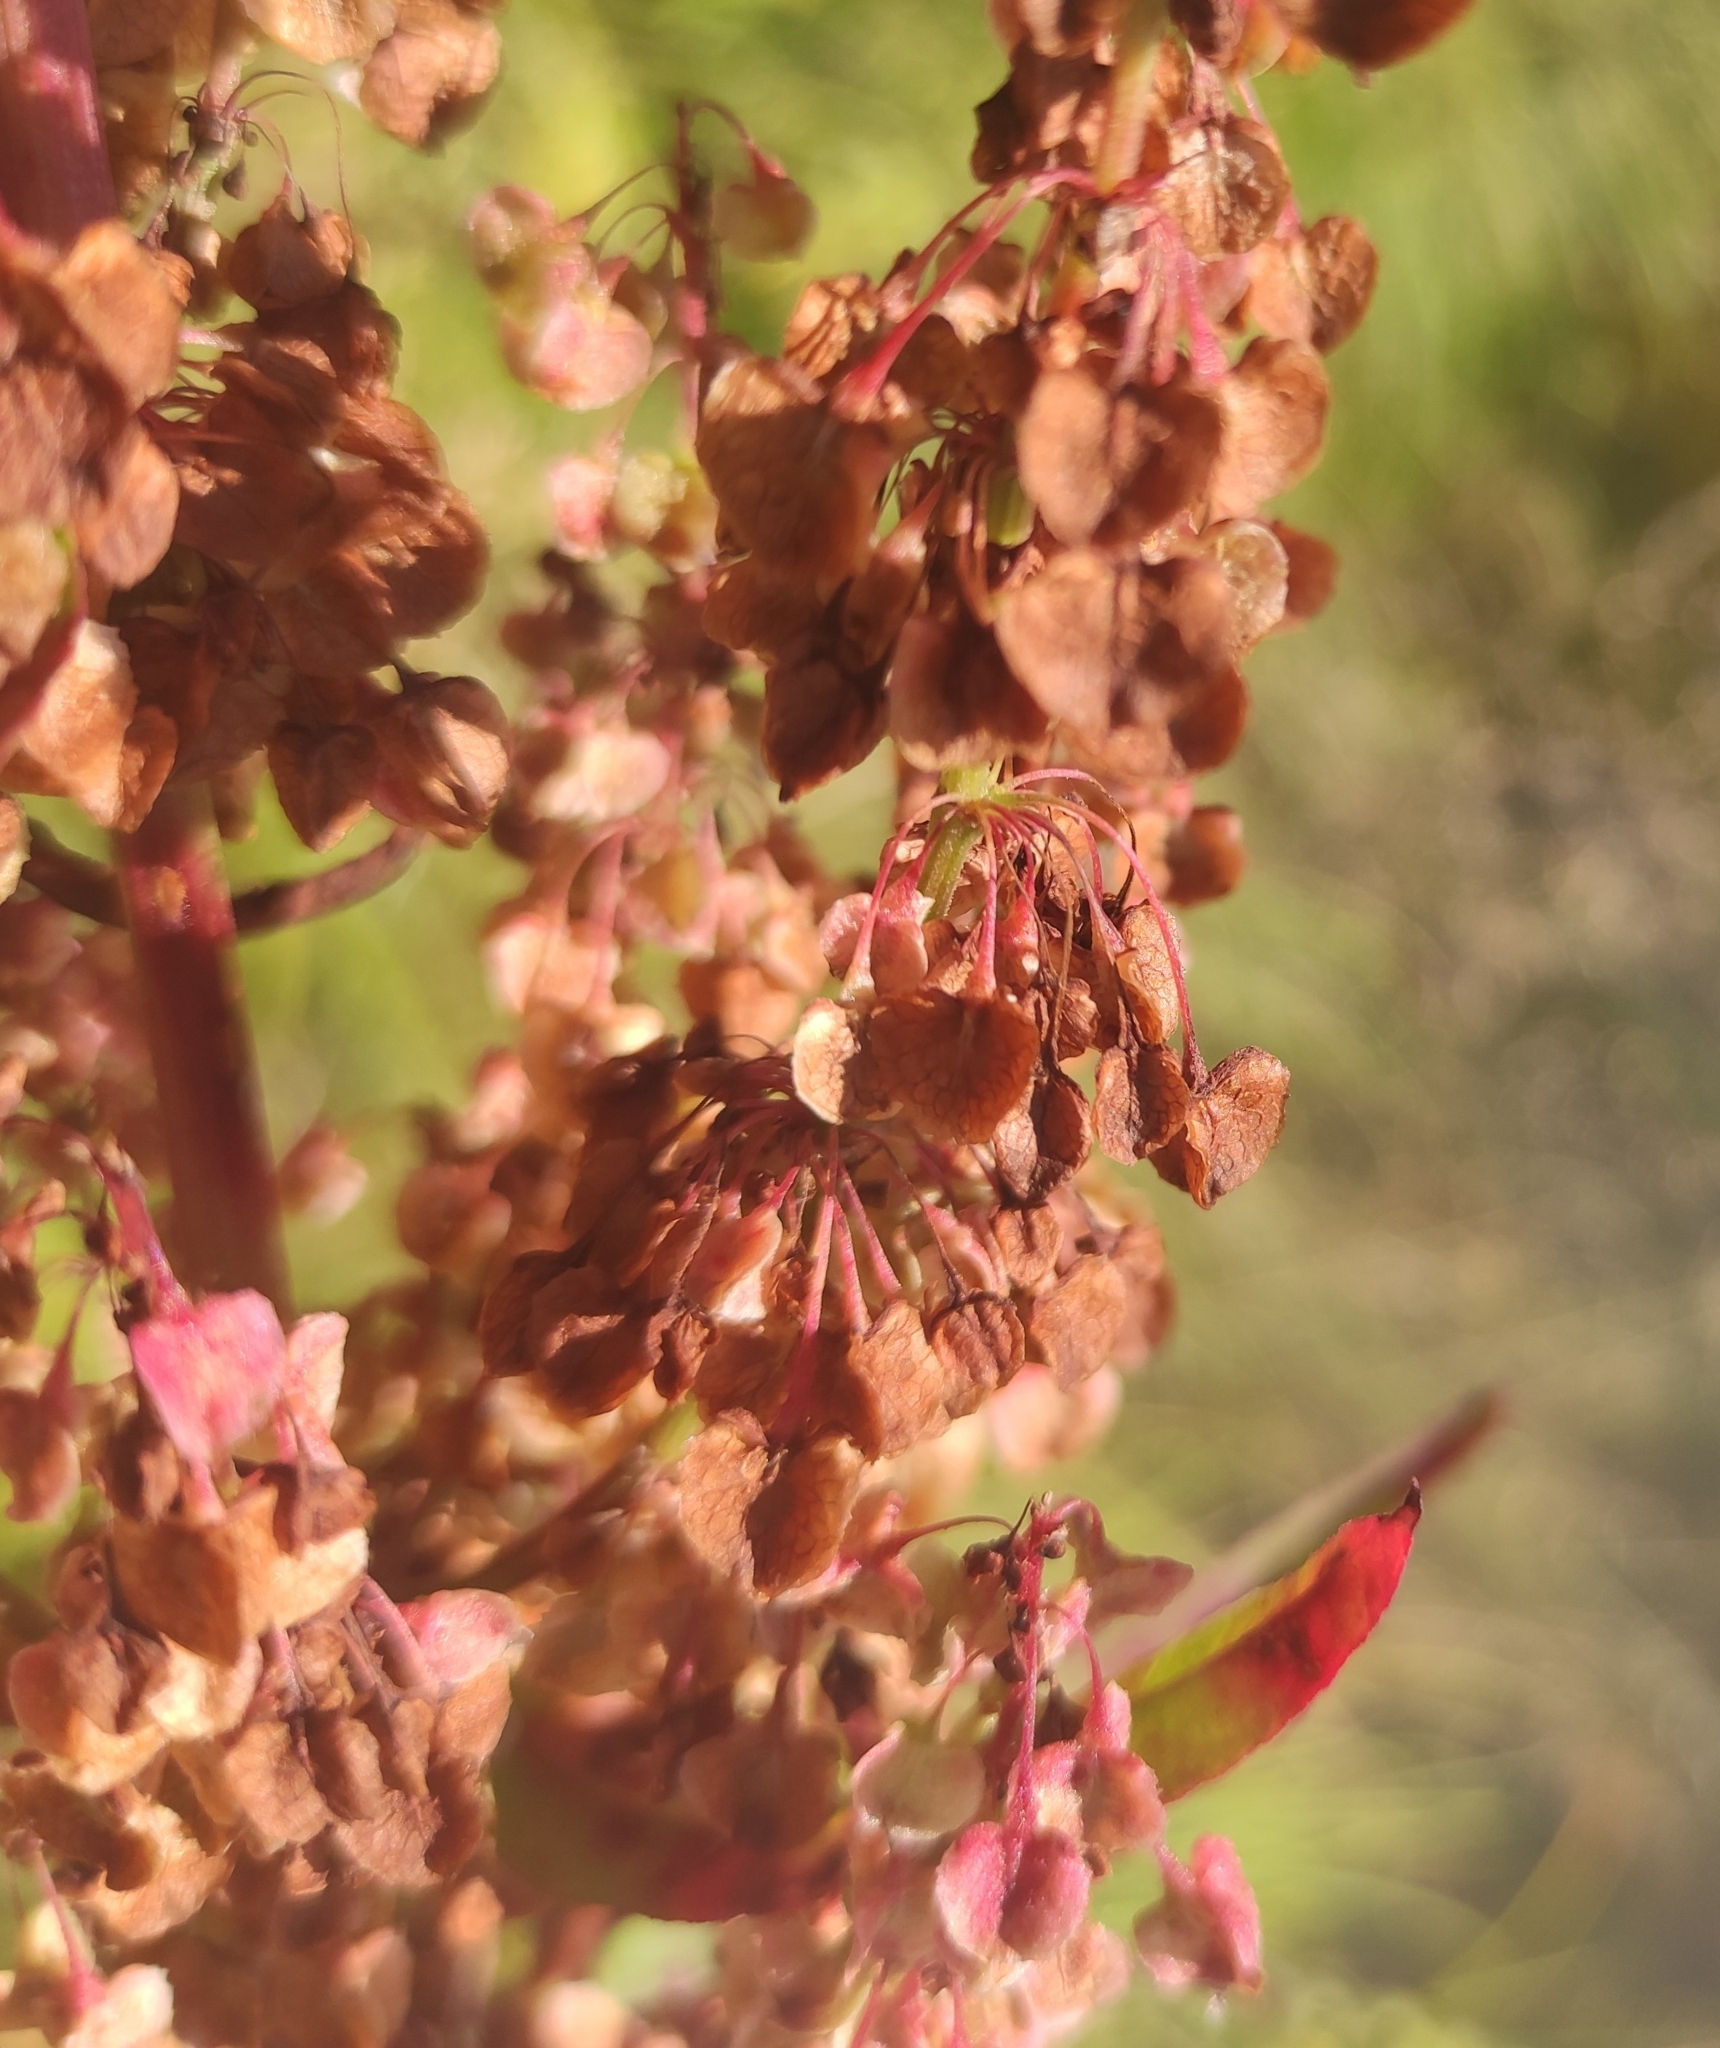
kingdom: Plantae
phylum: Tracheophyta
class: Magnoliopsida
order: Caryophyllales
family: Polygonaceae
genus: Rumex
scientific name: Rumex aquaticus
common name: Scottish dock
